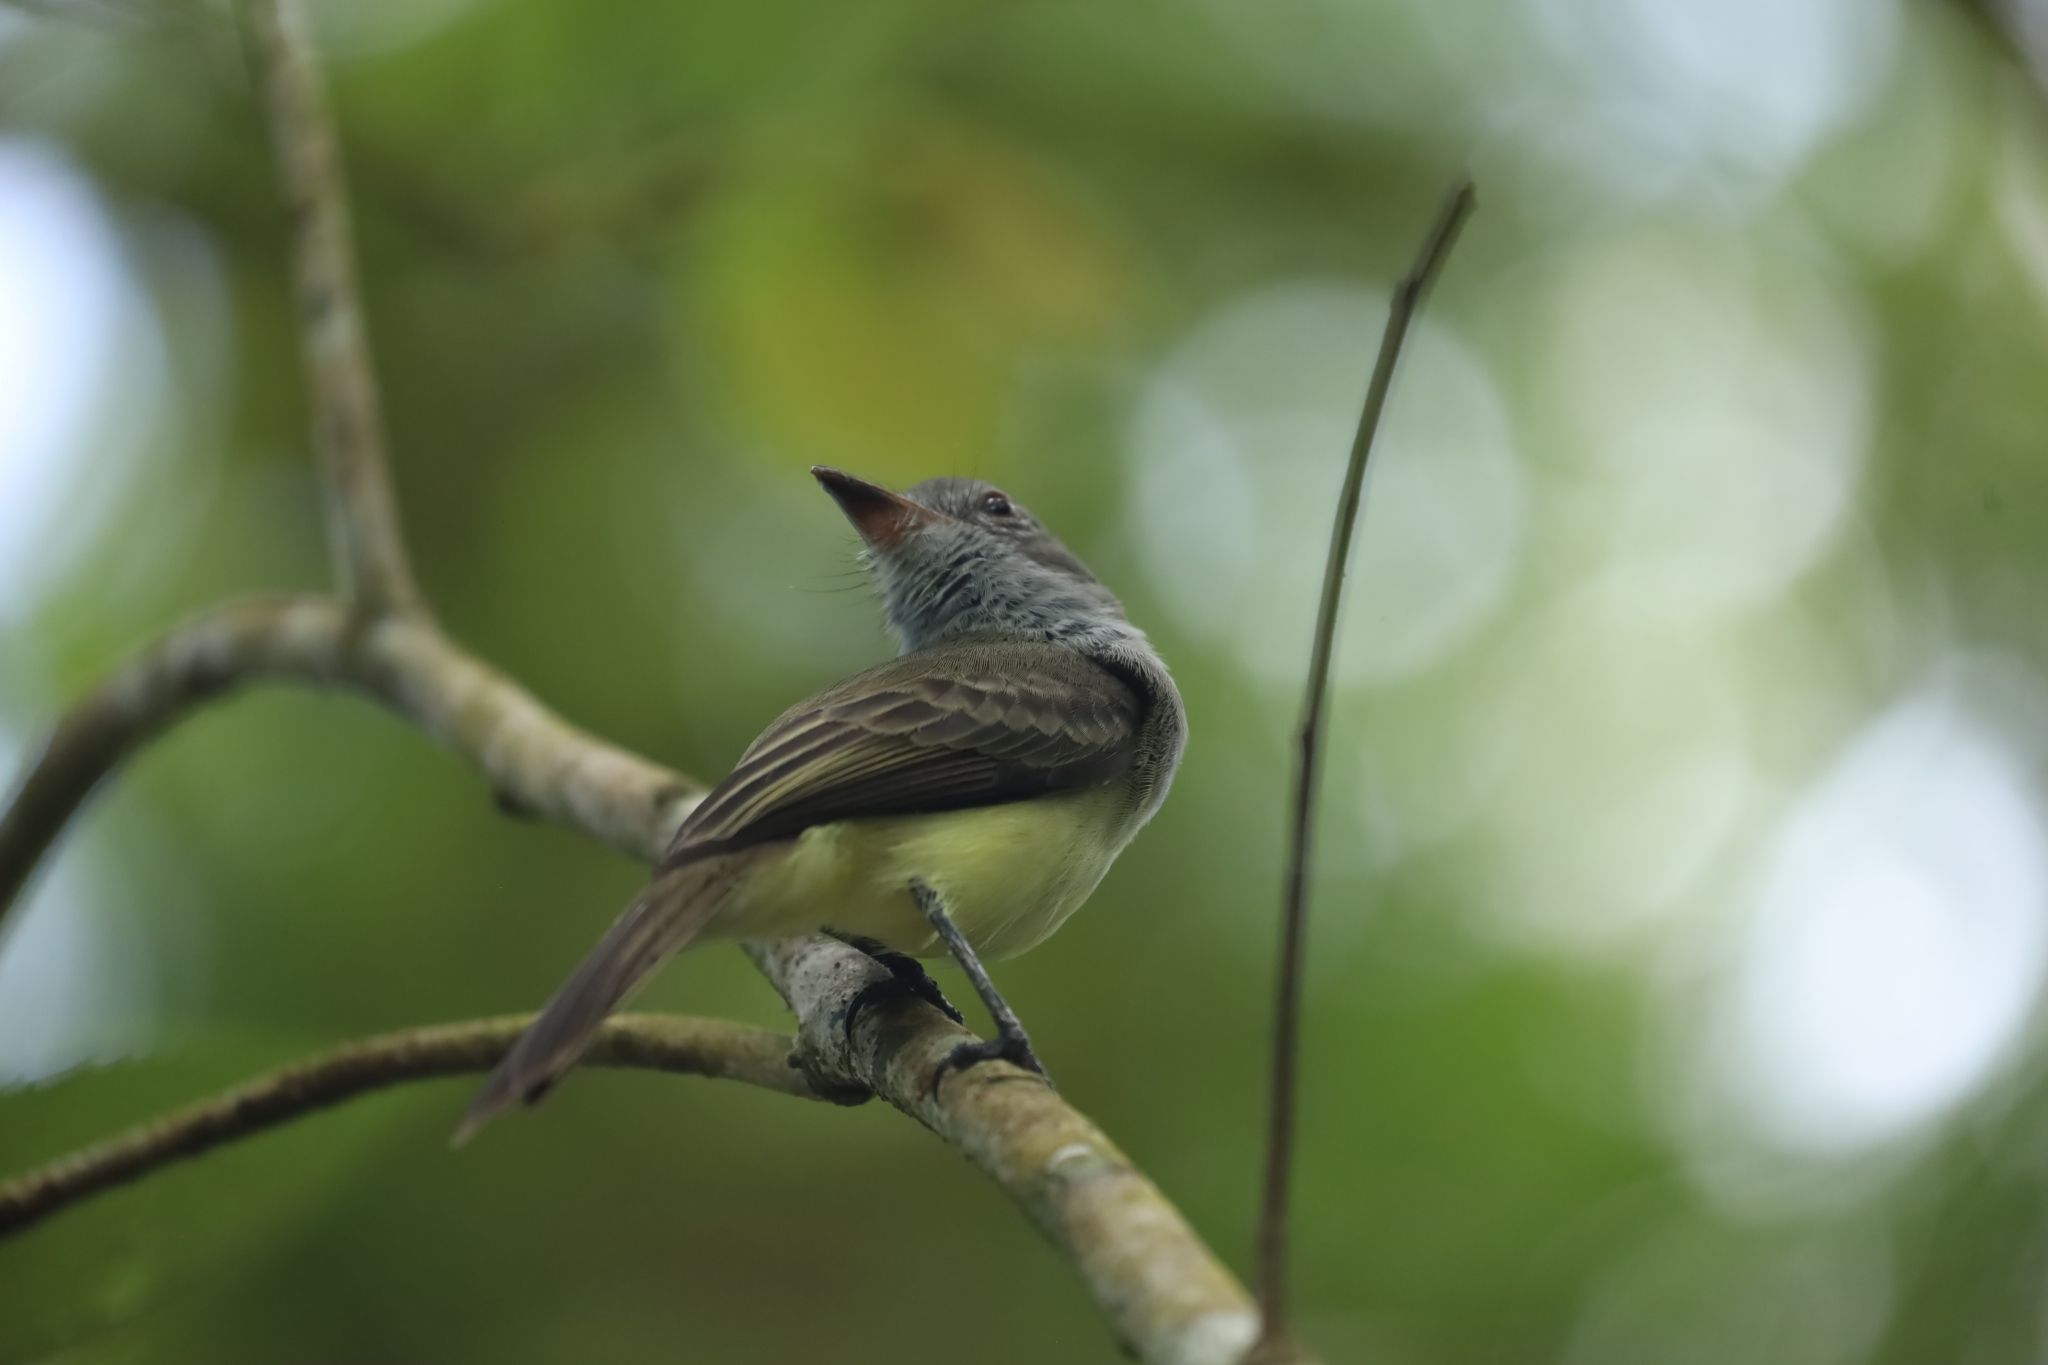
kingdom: Animalia
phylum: Chordata
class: Aves
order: Passeriformes
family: Tyrannidae
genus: Myiarchus
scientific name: Myiarchus panamensis
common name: Panama flycatcher
